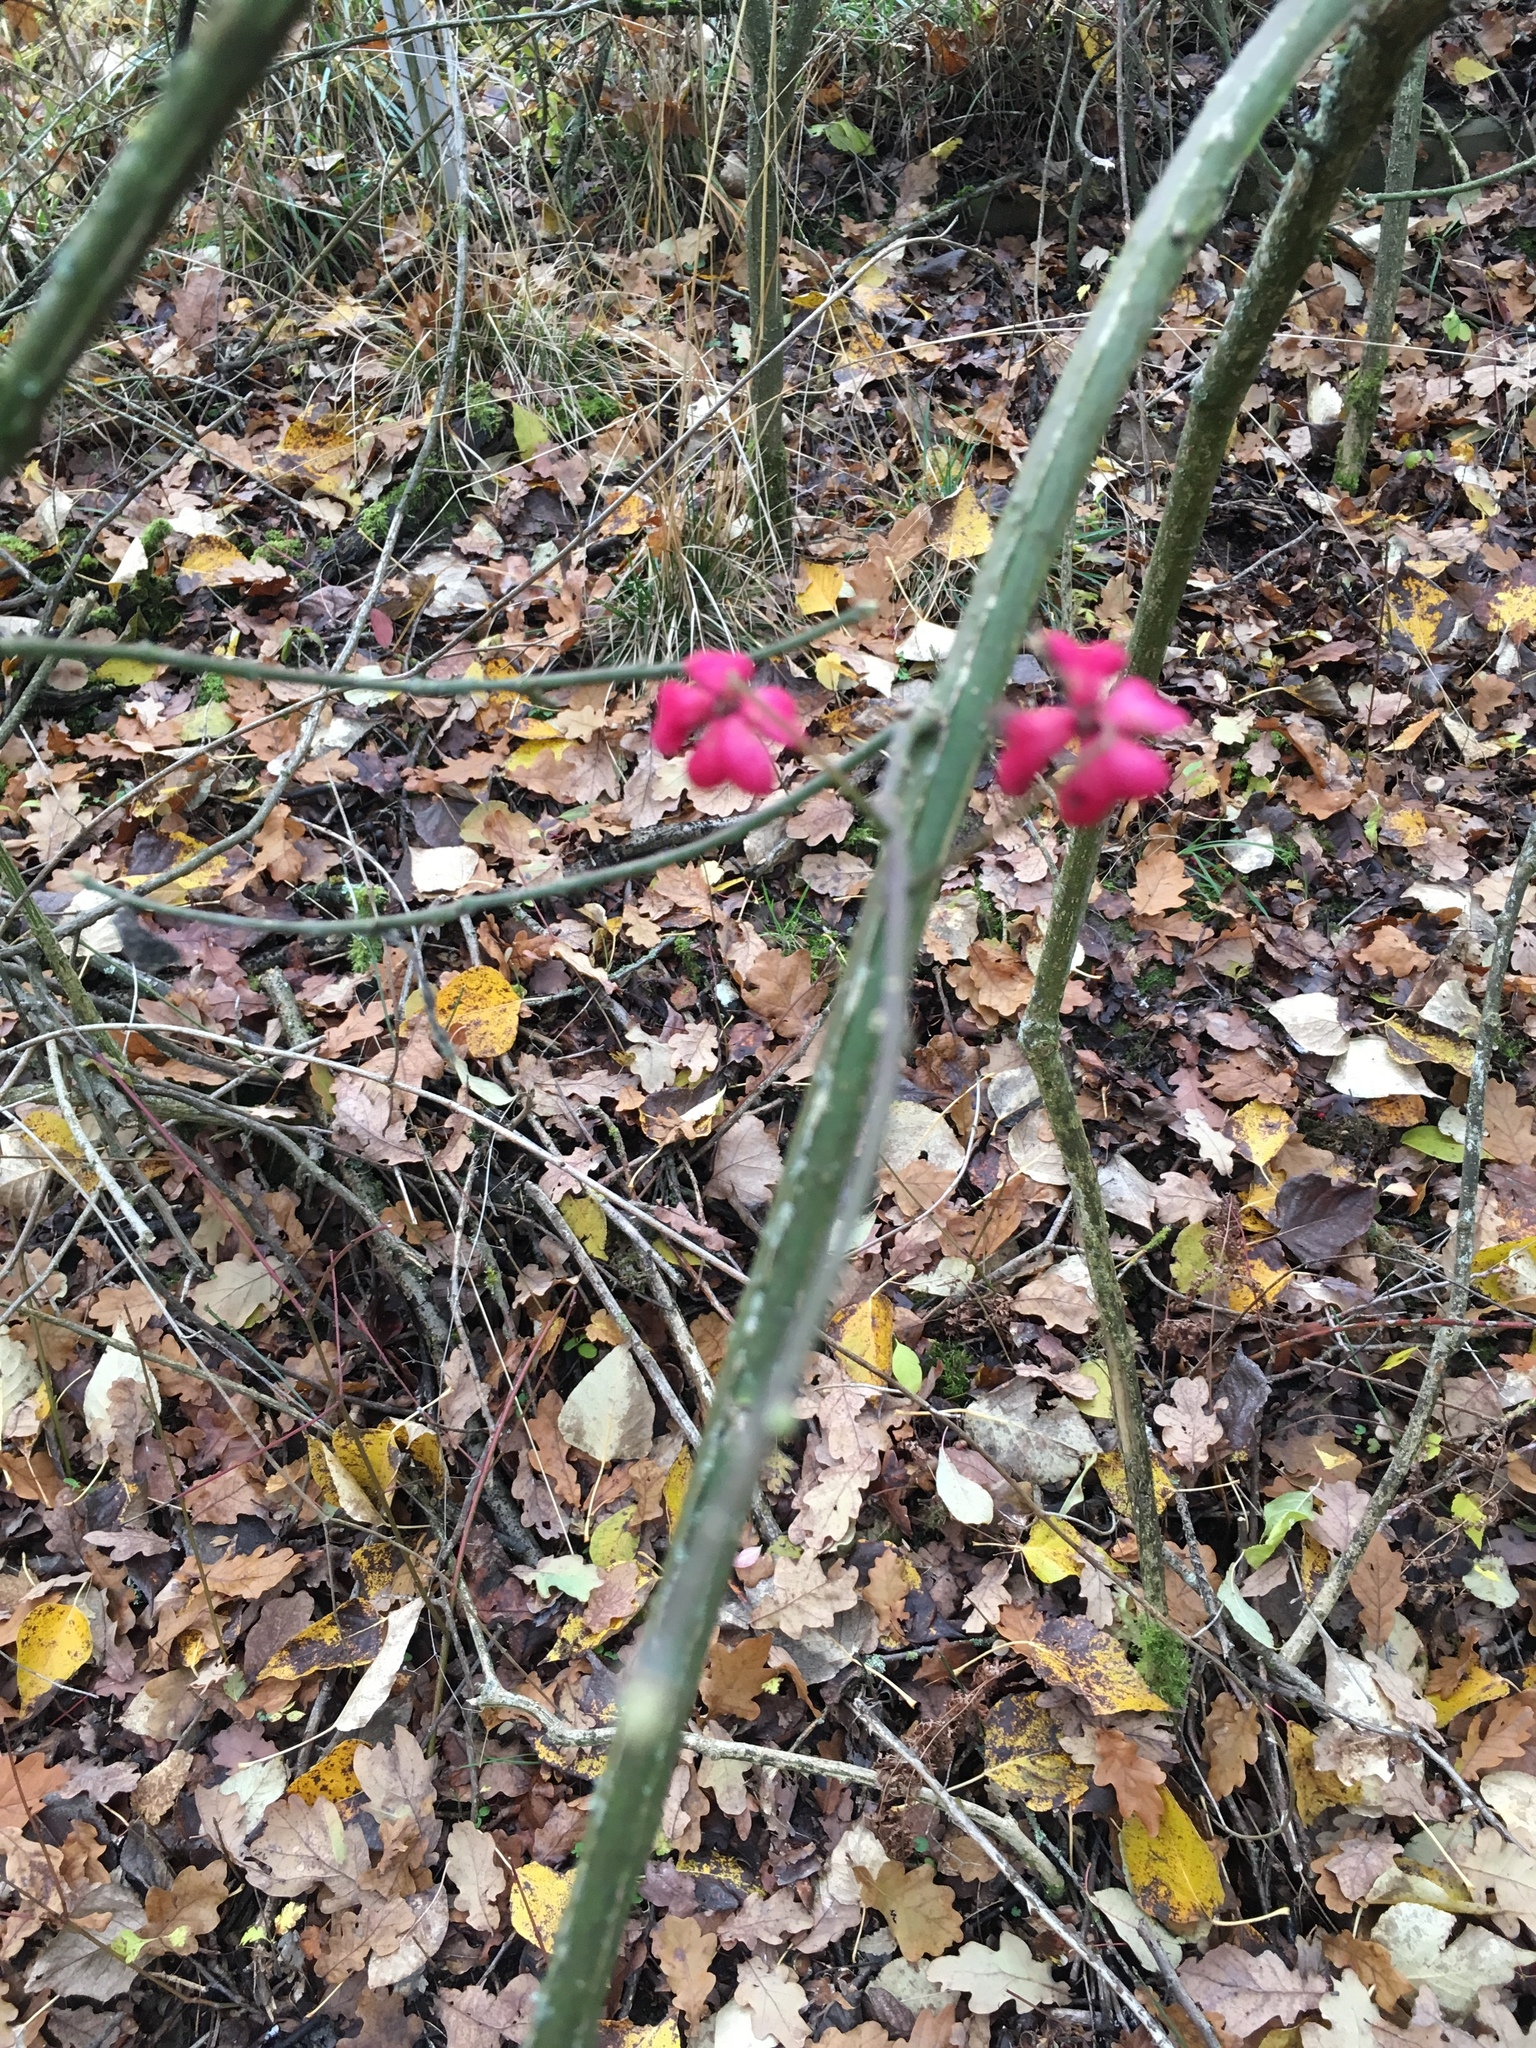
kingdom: Plantae
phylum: Tracheophyta
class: Magnoliopsida
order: Celastrales
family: Celastraceae
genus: Euonymus
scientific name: Euonymus europaeus
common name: Spindle
